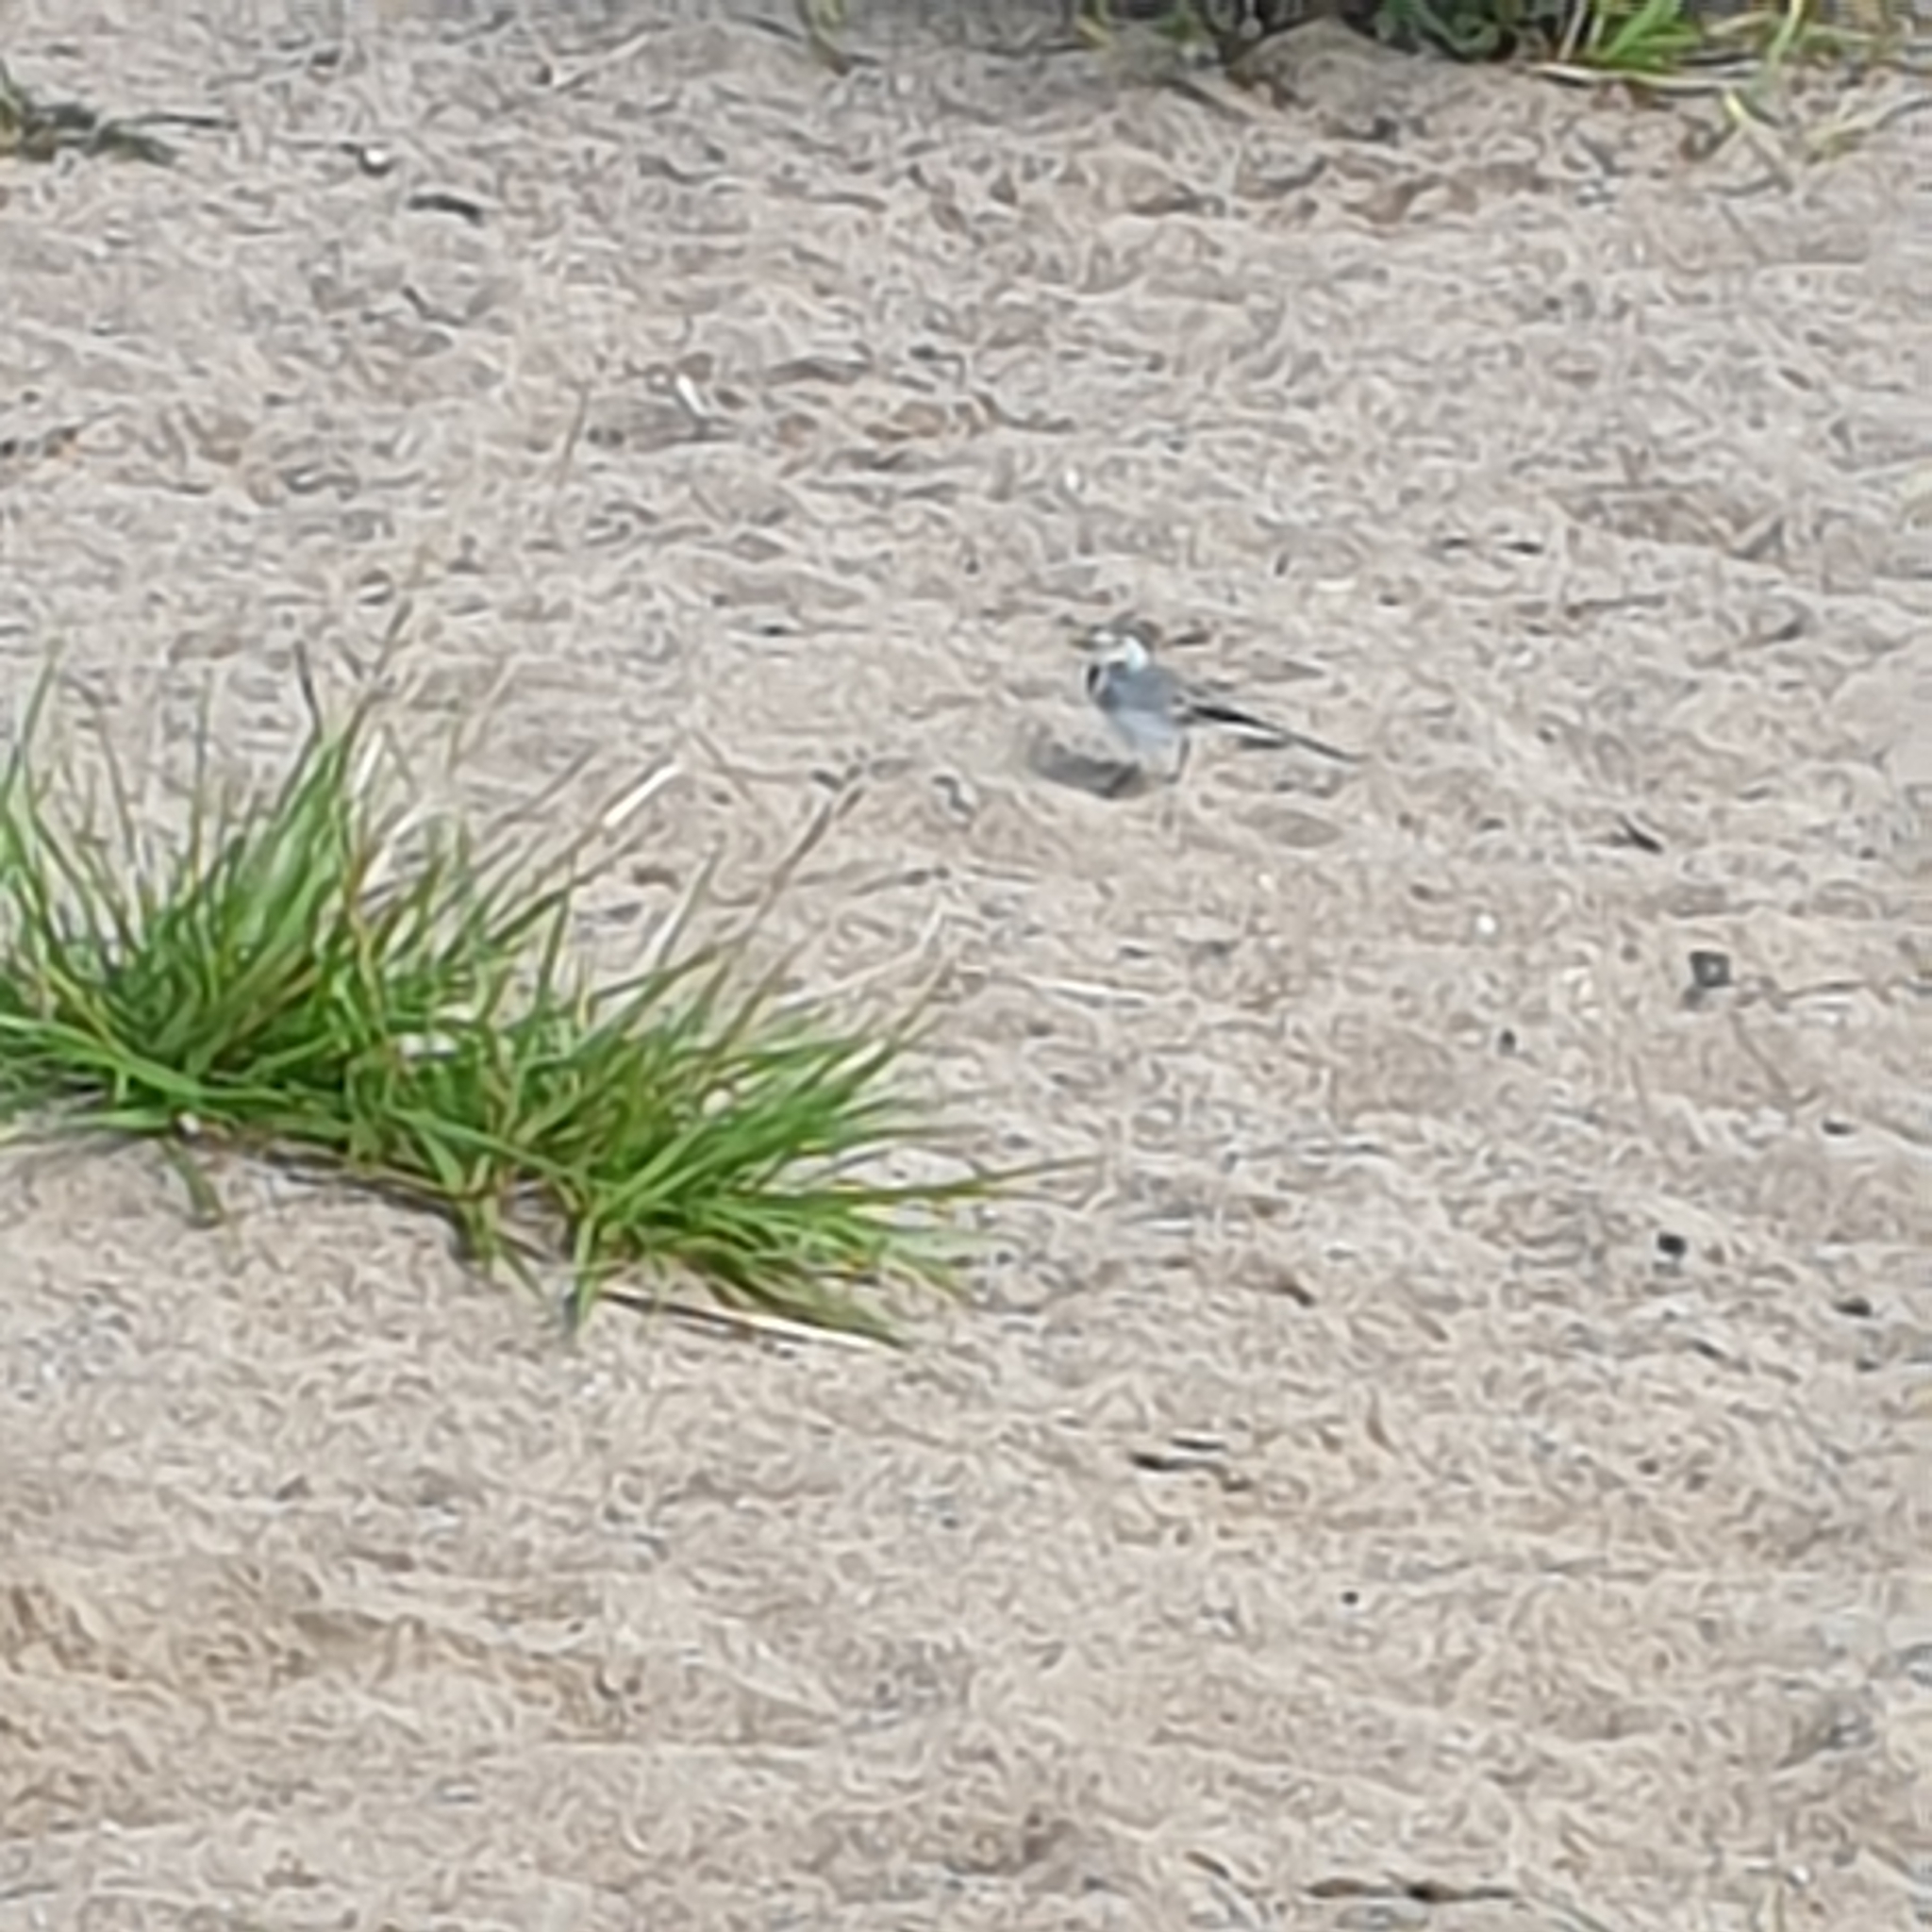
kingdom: Animalia
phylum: Chordata
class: Aves
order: Passeriformes
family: Motacillidae
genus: Motacilla
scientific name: Motacilla alba
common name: White wagtail
